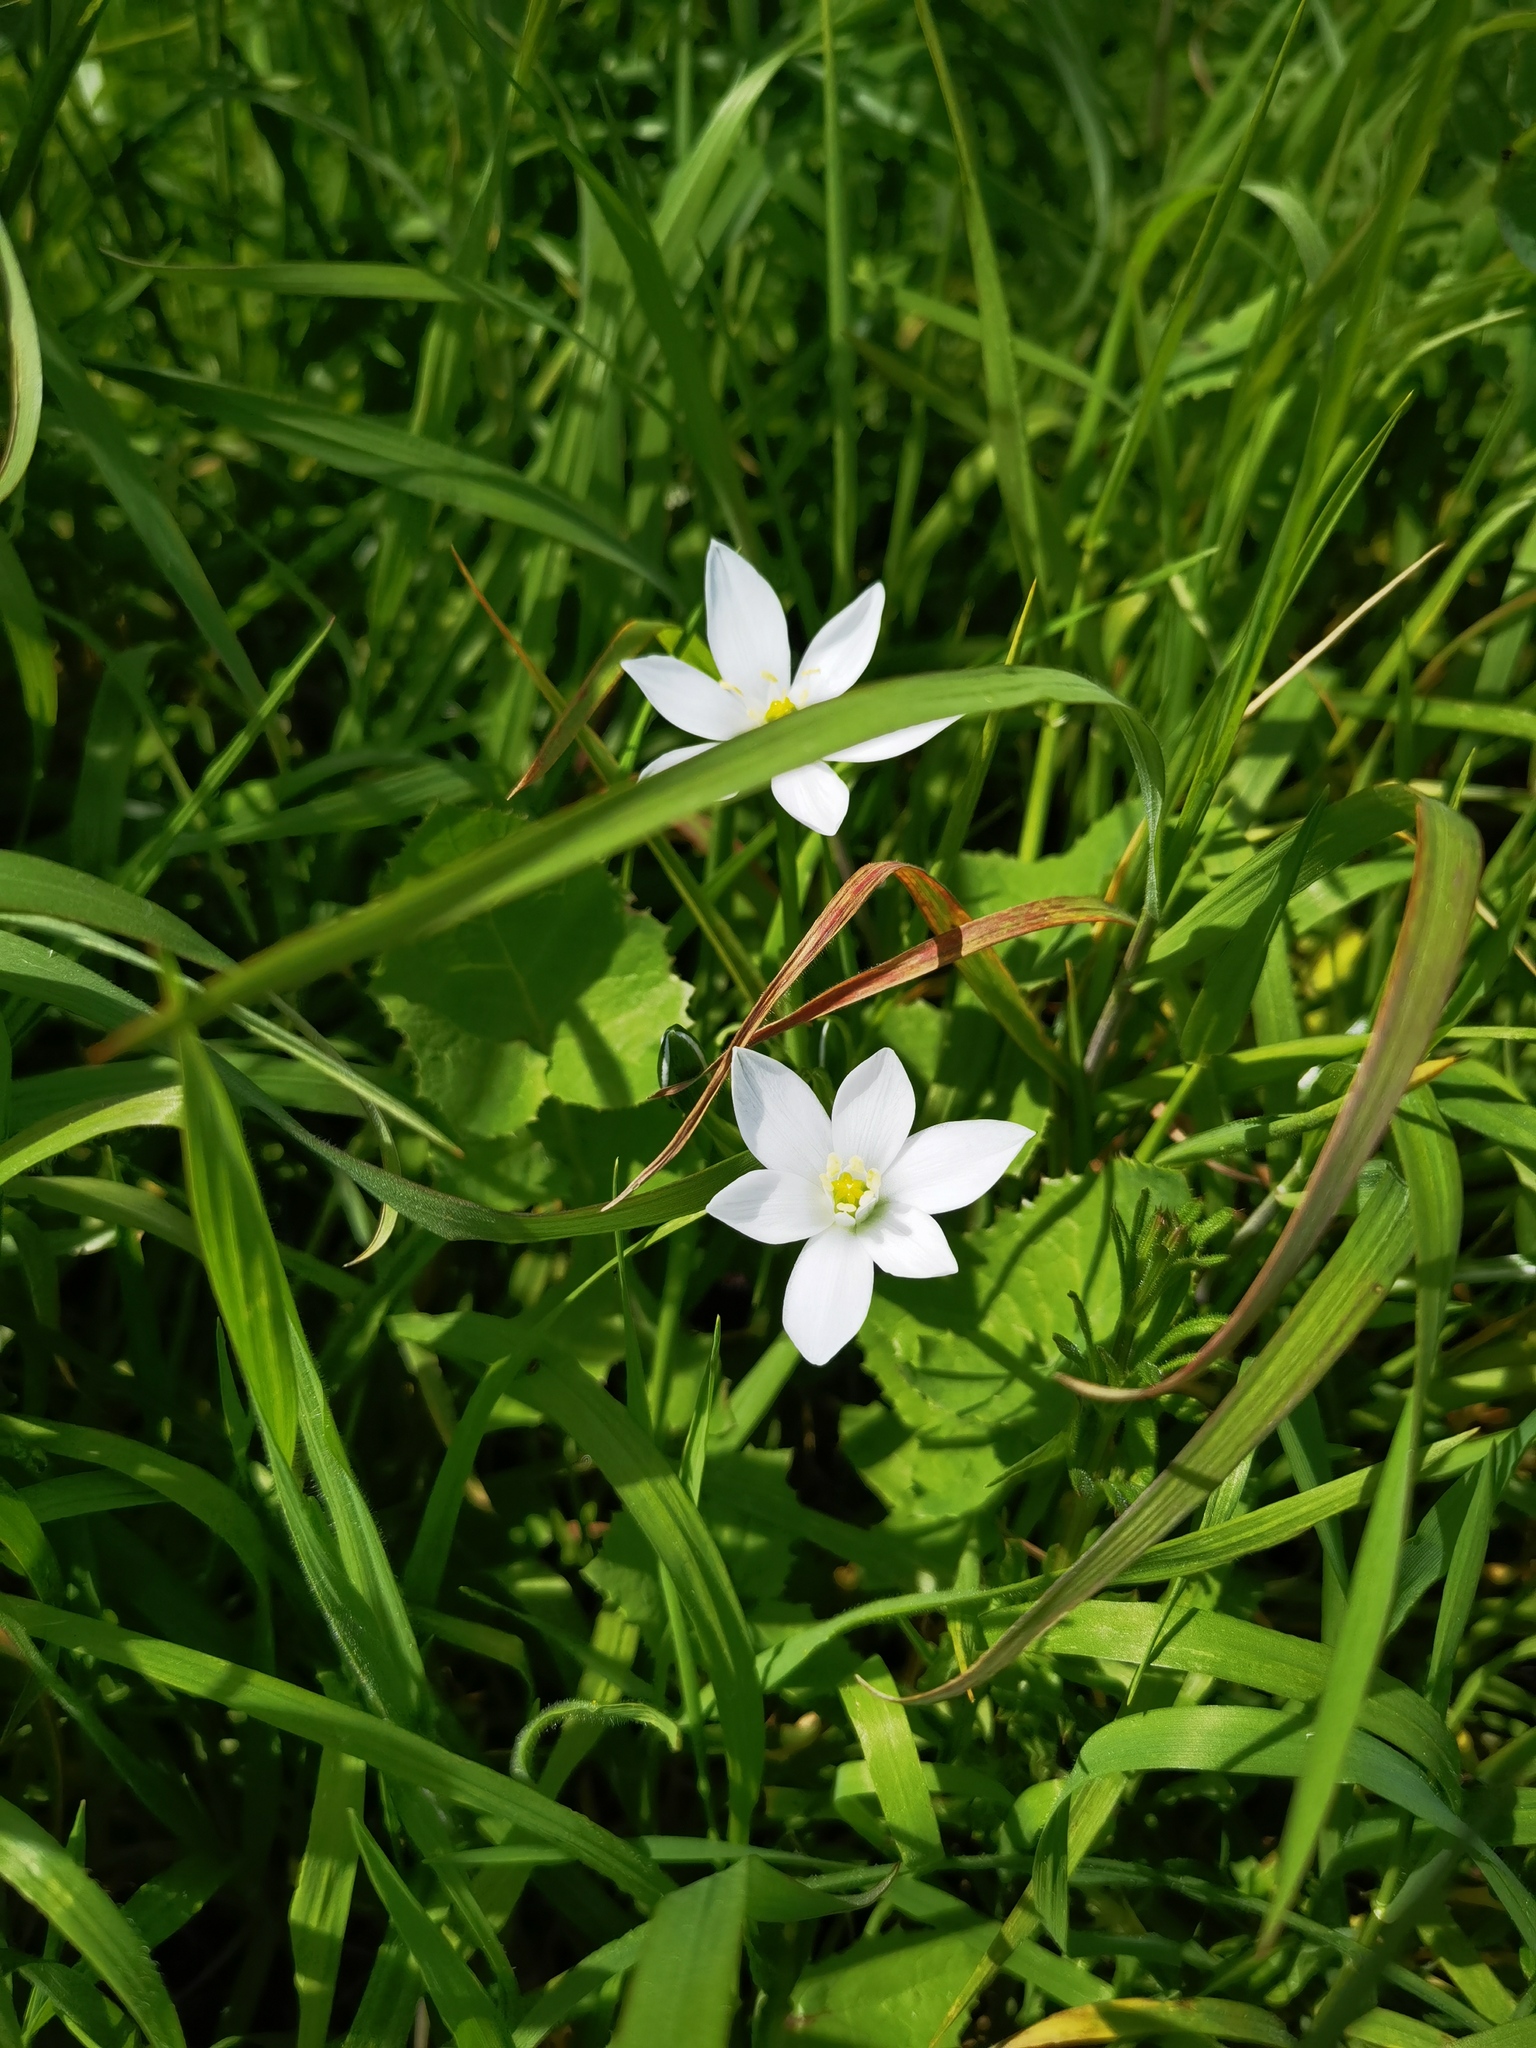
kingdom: Plantae
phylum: Tracheophyta
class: Liliopsida
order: Asparagales
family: Asparagaceae
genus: Ornithogalum
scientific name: Ornithogalum umbellatum
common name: Garden star-of-bethlehem
